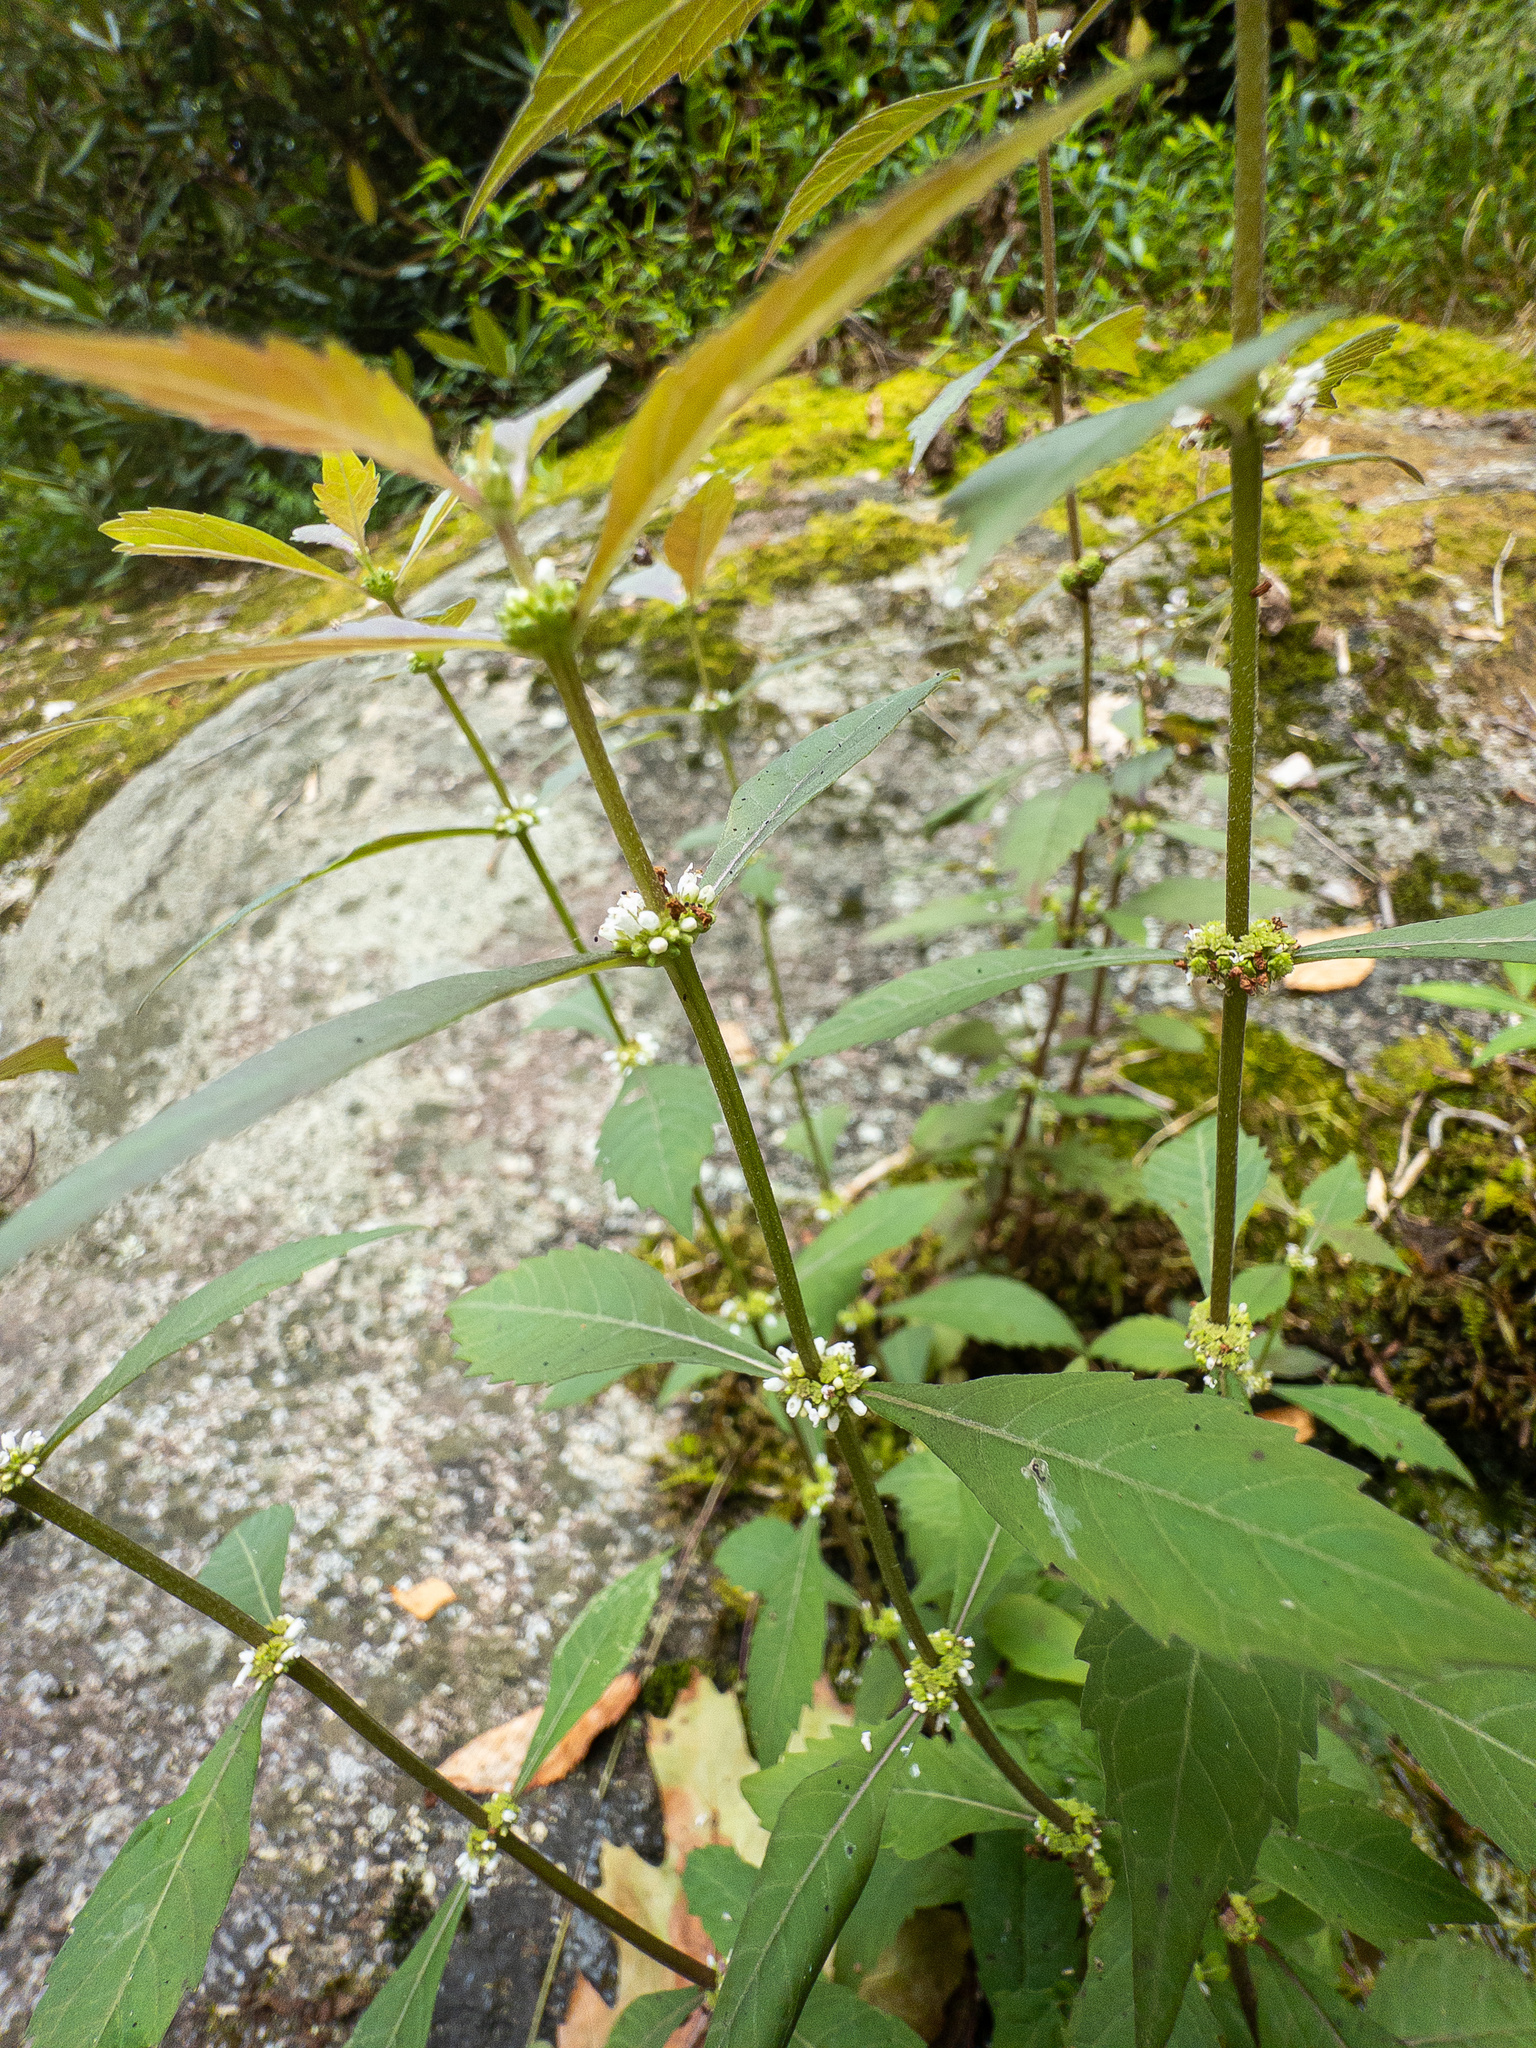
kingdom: Plantae
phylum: Tracheophyta
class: Magnoliopsida
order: Lamiales
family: Lamiaceae
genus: Lycopus
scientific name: Lycopus uniflorus
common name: Northern bugleweed
